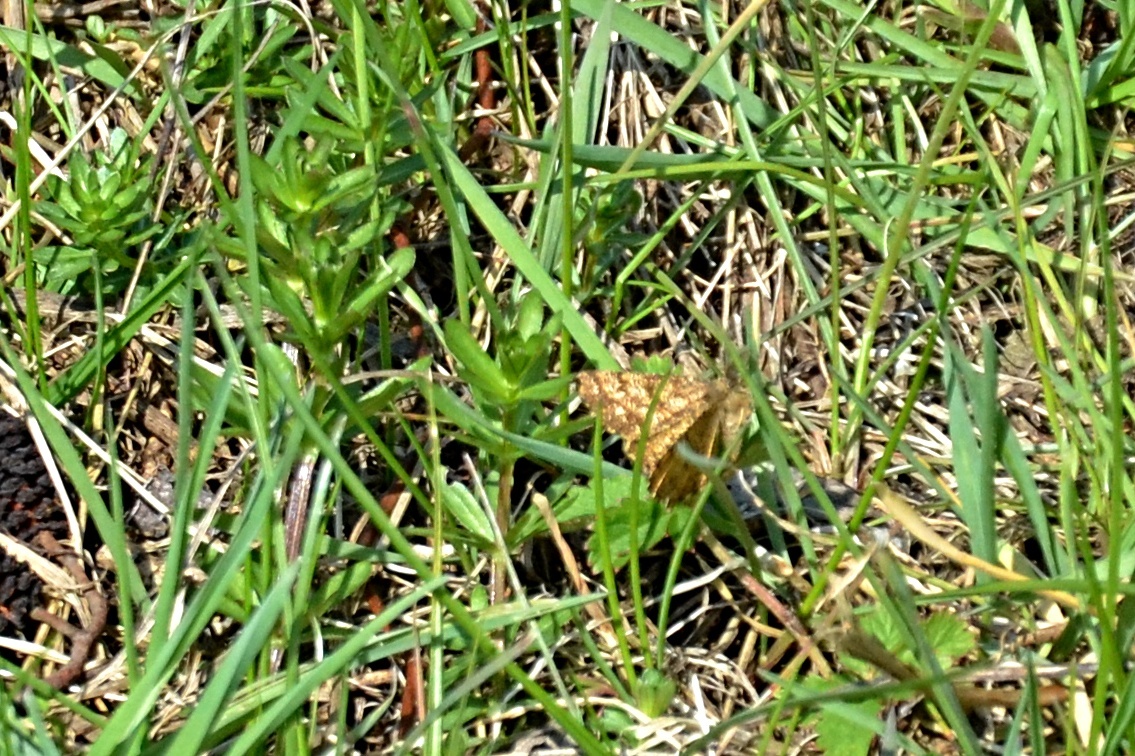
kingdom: Animalia
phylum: Arthropoda
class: Insecta
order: Lepidoptera
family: Geometridae
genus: Ematurga
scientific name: Ematurga atomaria
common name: Common heath
